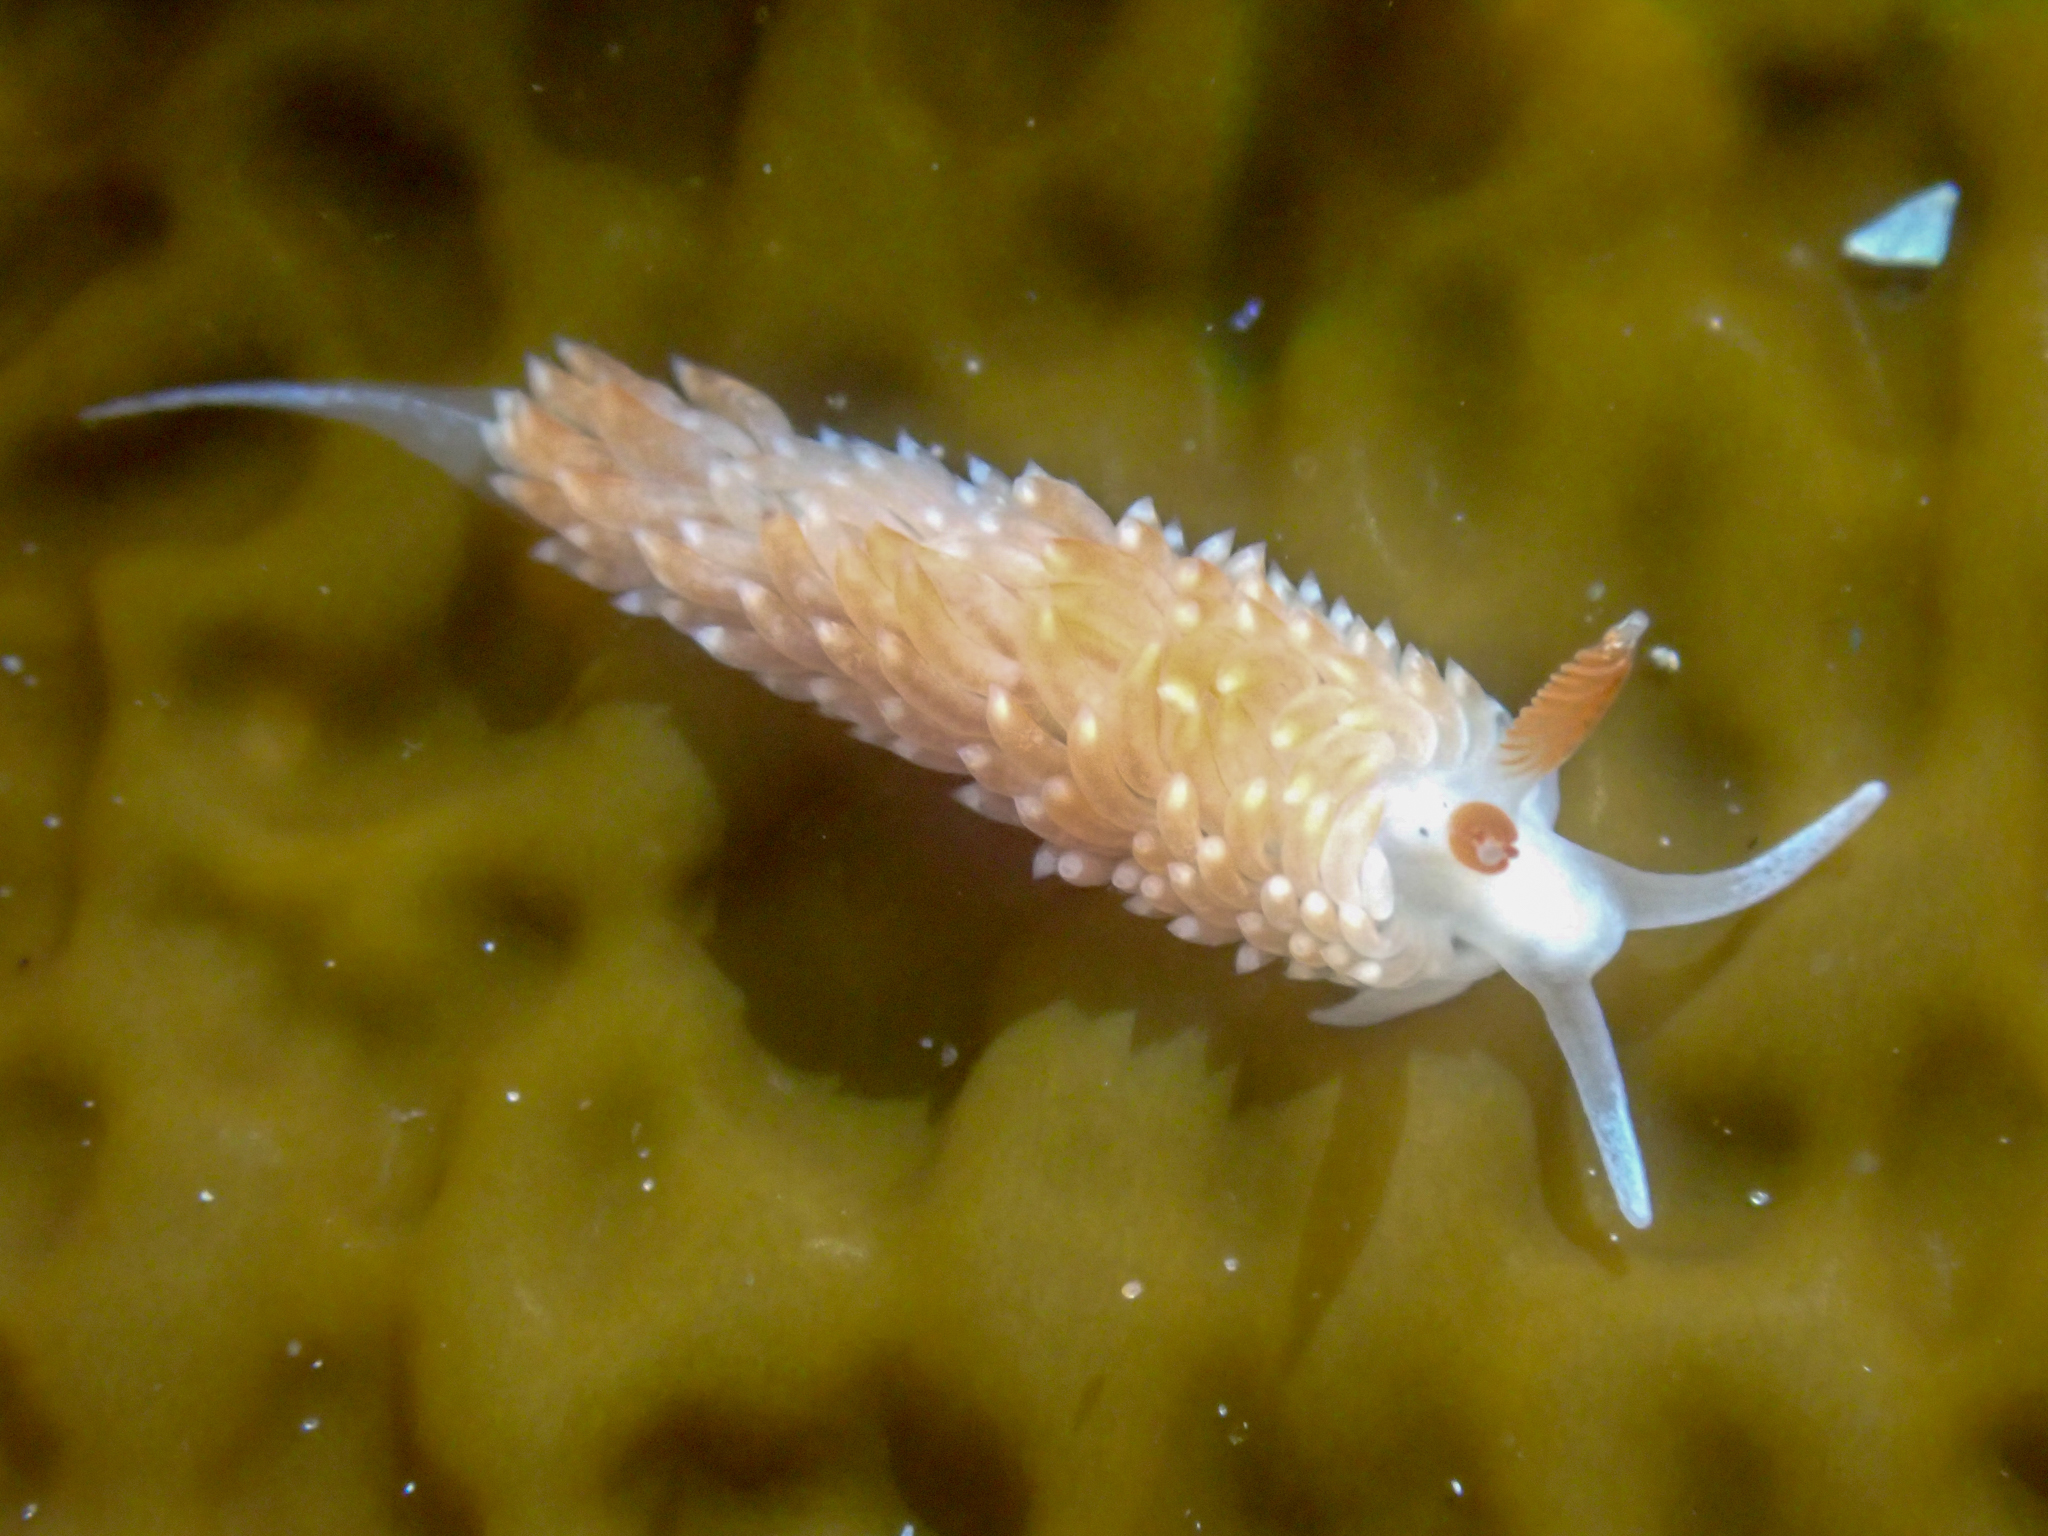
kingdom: Animalia
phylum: Mollusca
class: Gastropoda
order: Nudibranchia
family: Aeolidiidae
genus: Anteaeolidiella
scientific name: Anteaeolidiella oliviae
